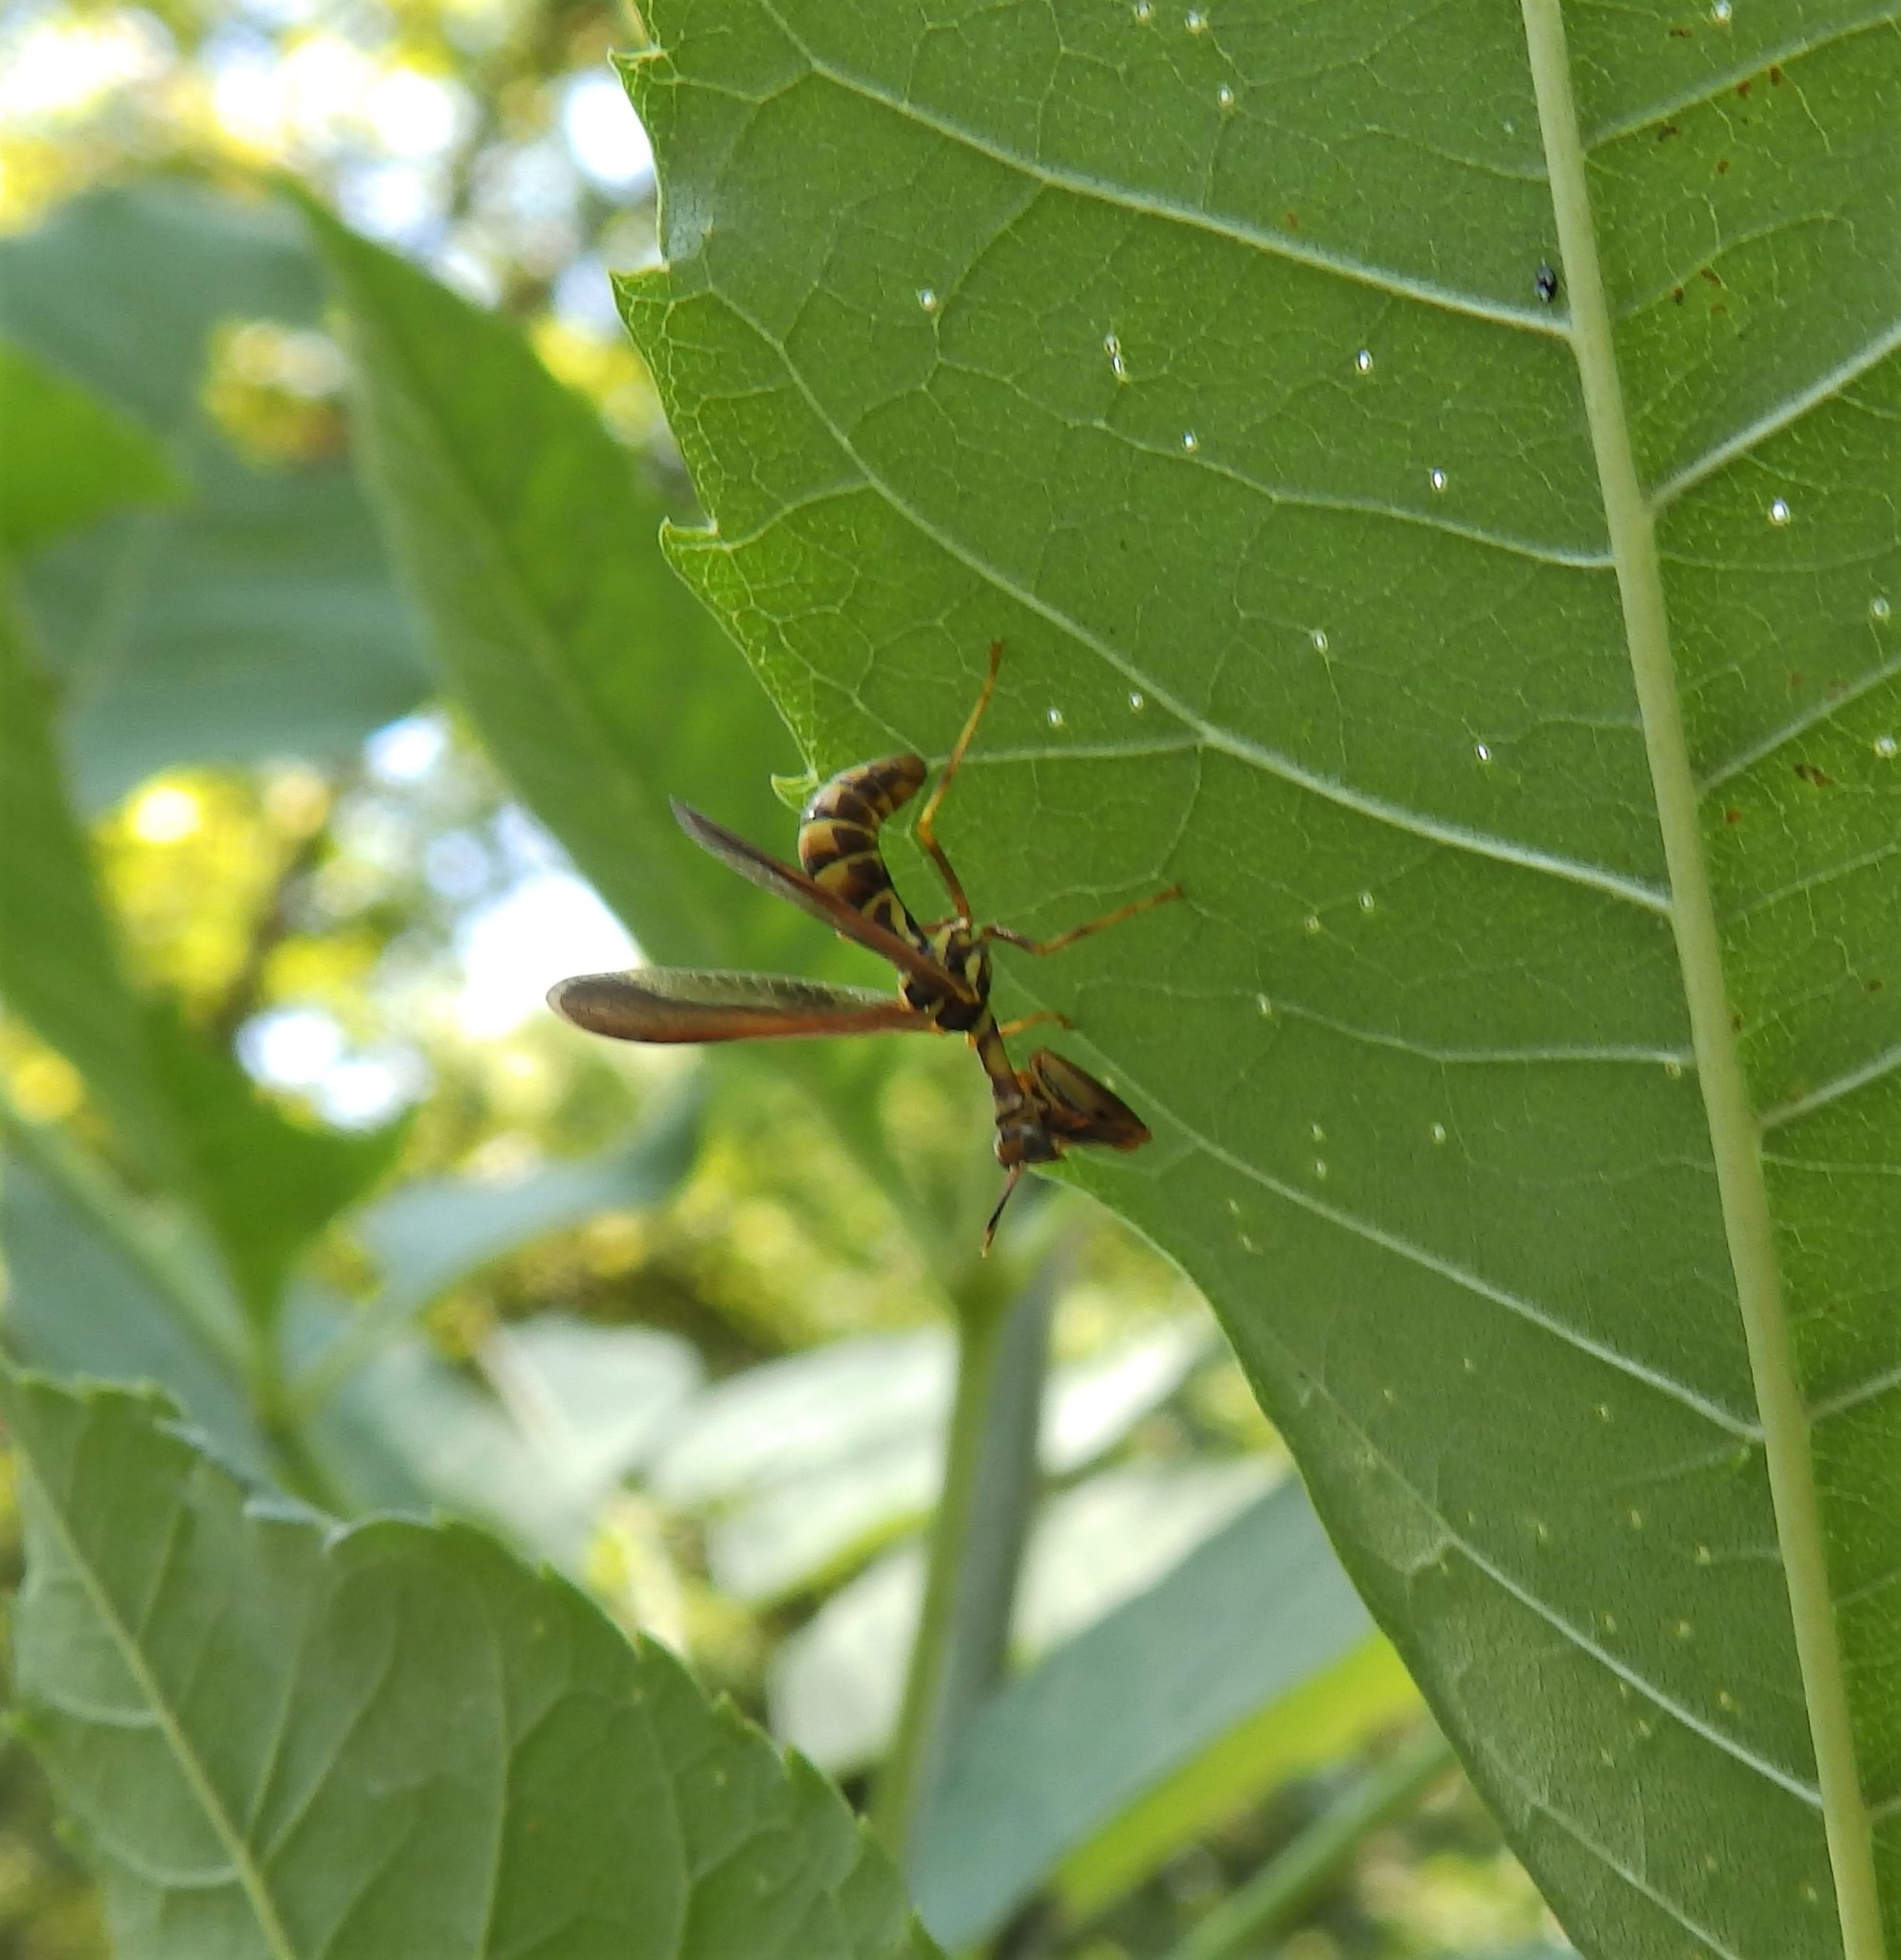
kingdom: Animalia
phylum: Arthropoda
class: Insecta
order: Neuroptera
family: Mantispidae
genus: Climaciella
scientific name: Climaciella brunnea
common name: Brown wasp mantidfly
